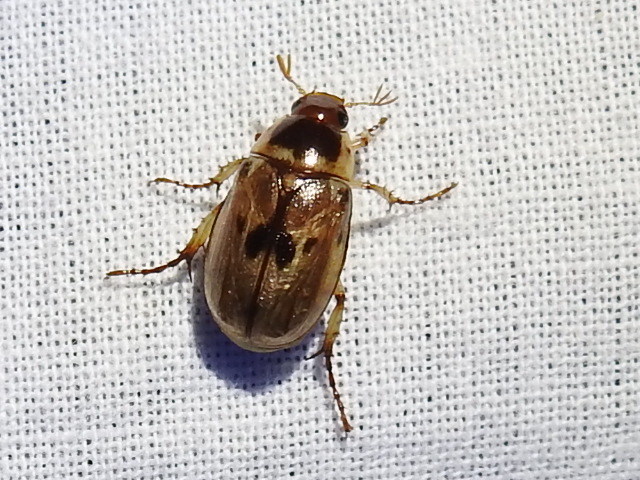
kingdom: Animalia
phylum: Arthropoda
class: Insecta
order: Coleoptera
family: Scarabaeidae
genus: Paranomala
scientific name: Paranomala undulata
